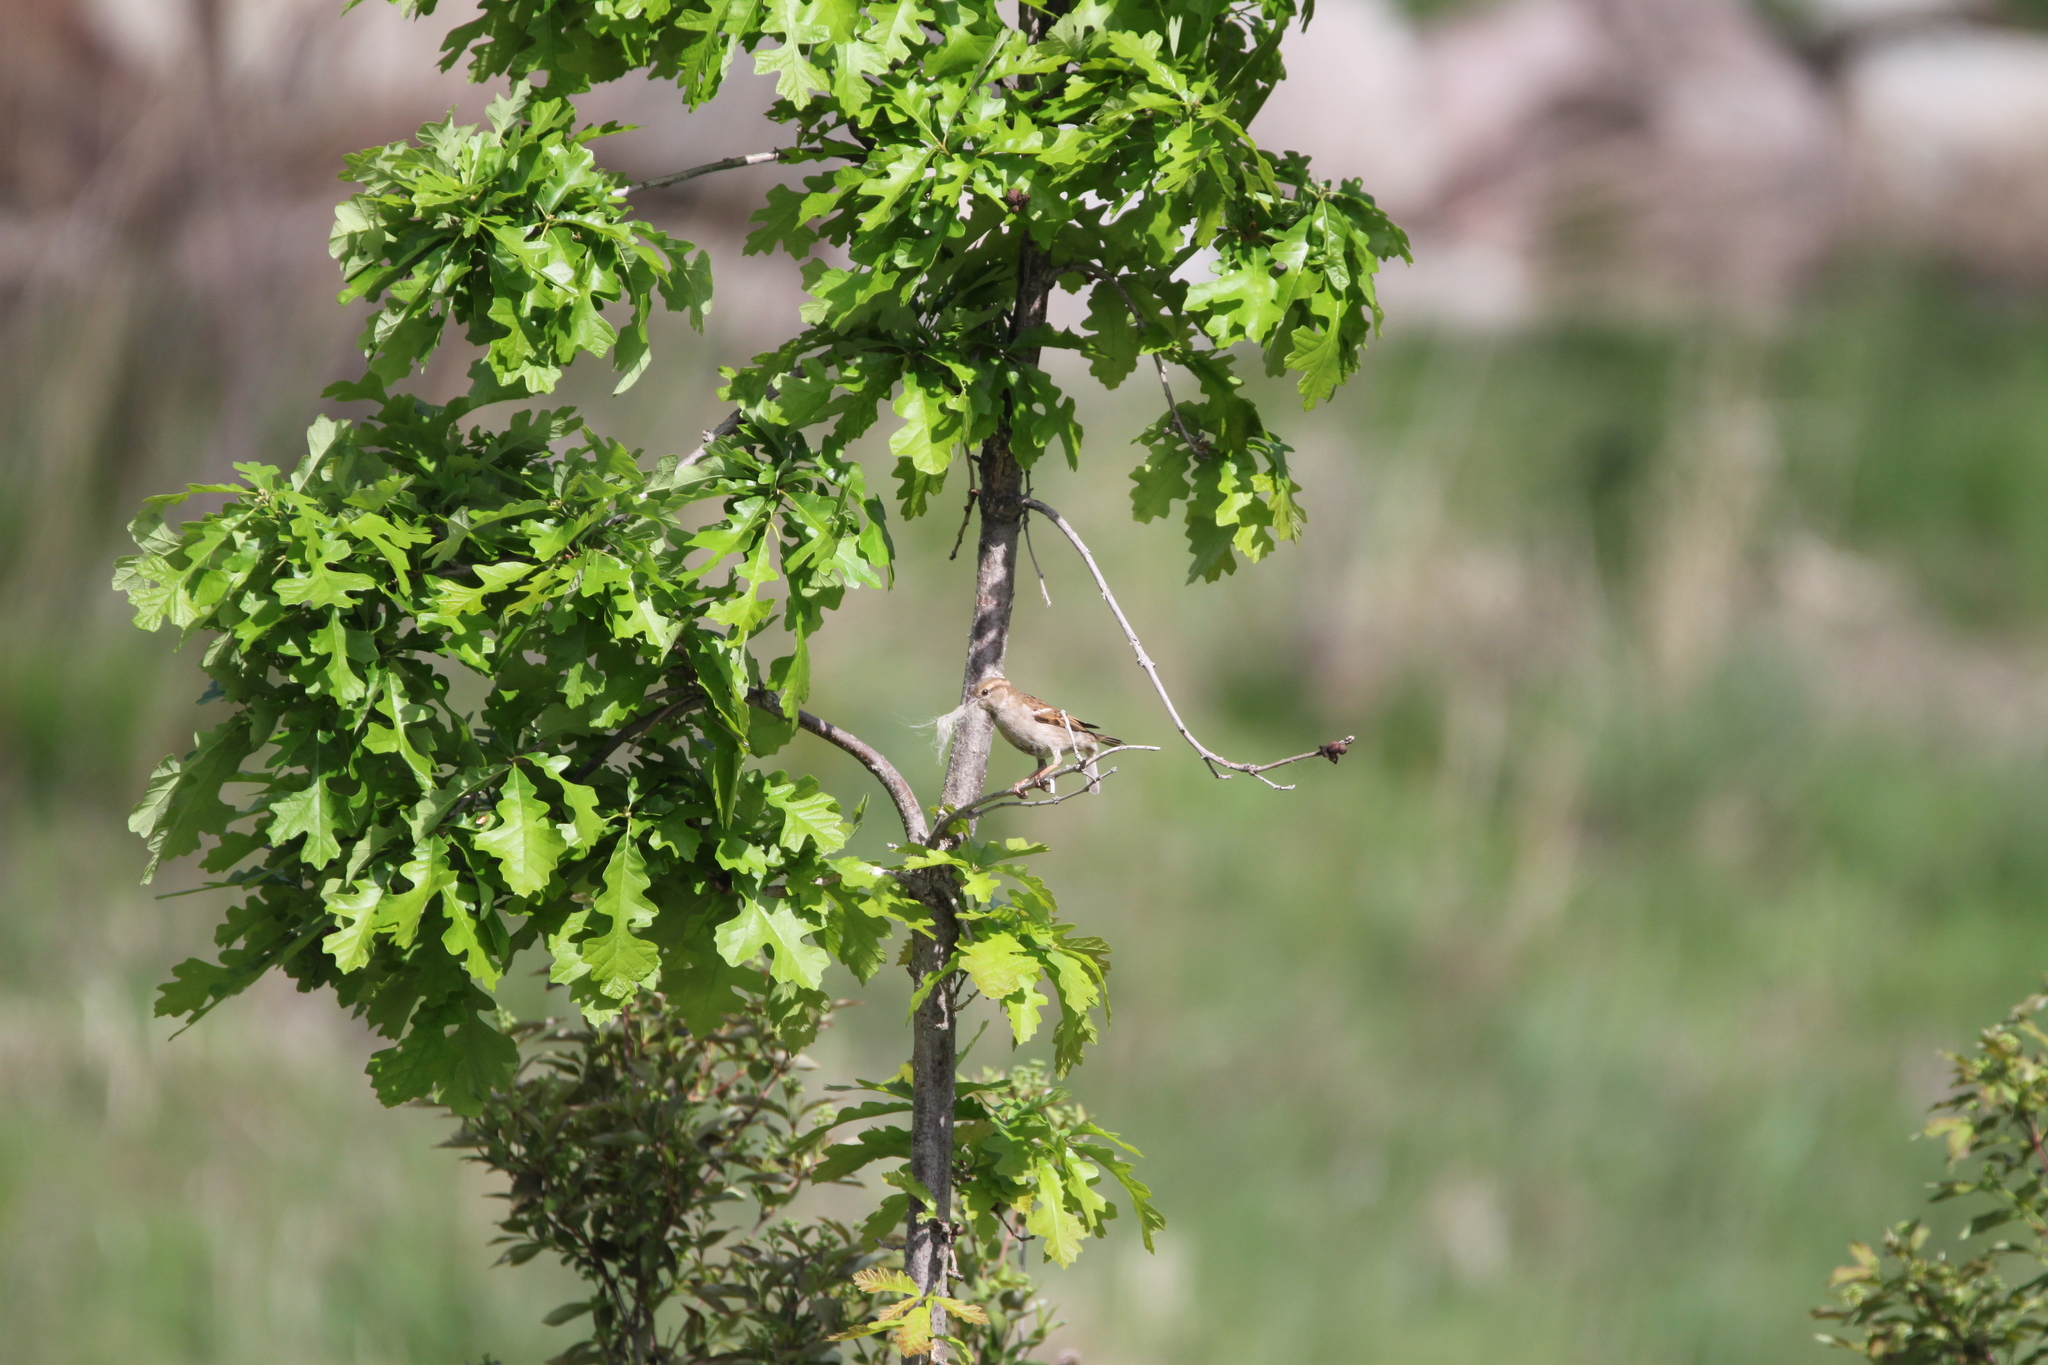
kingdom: Animalia
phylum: Chordata
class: Aves
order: Passeriformes
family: Passeridae
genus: Passer
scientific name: Passer domesticus
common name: House sparrow
